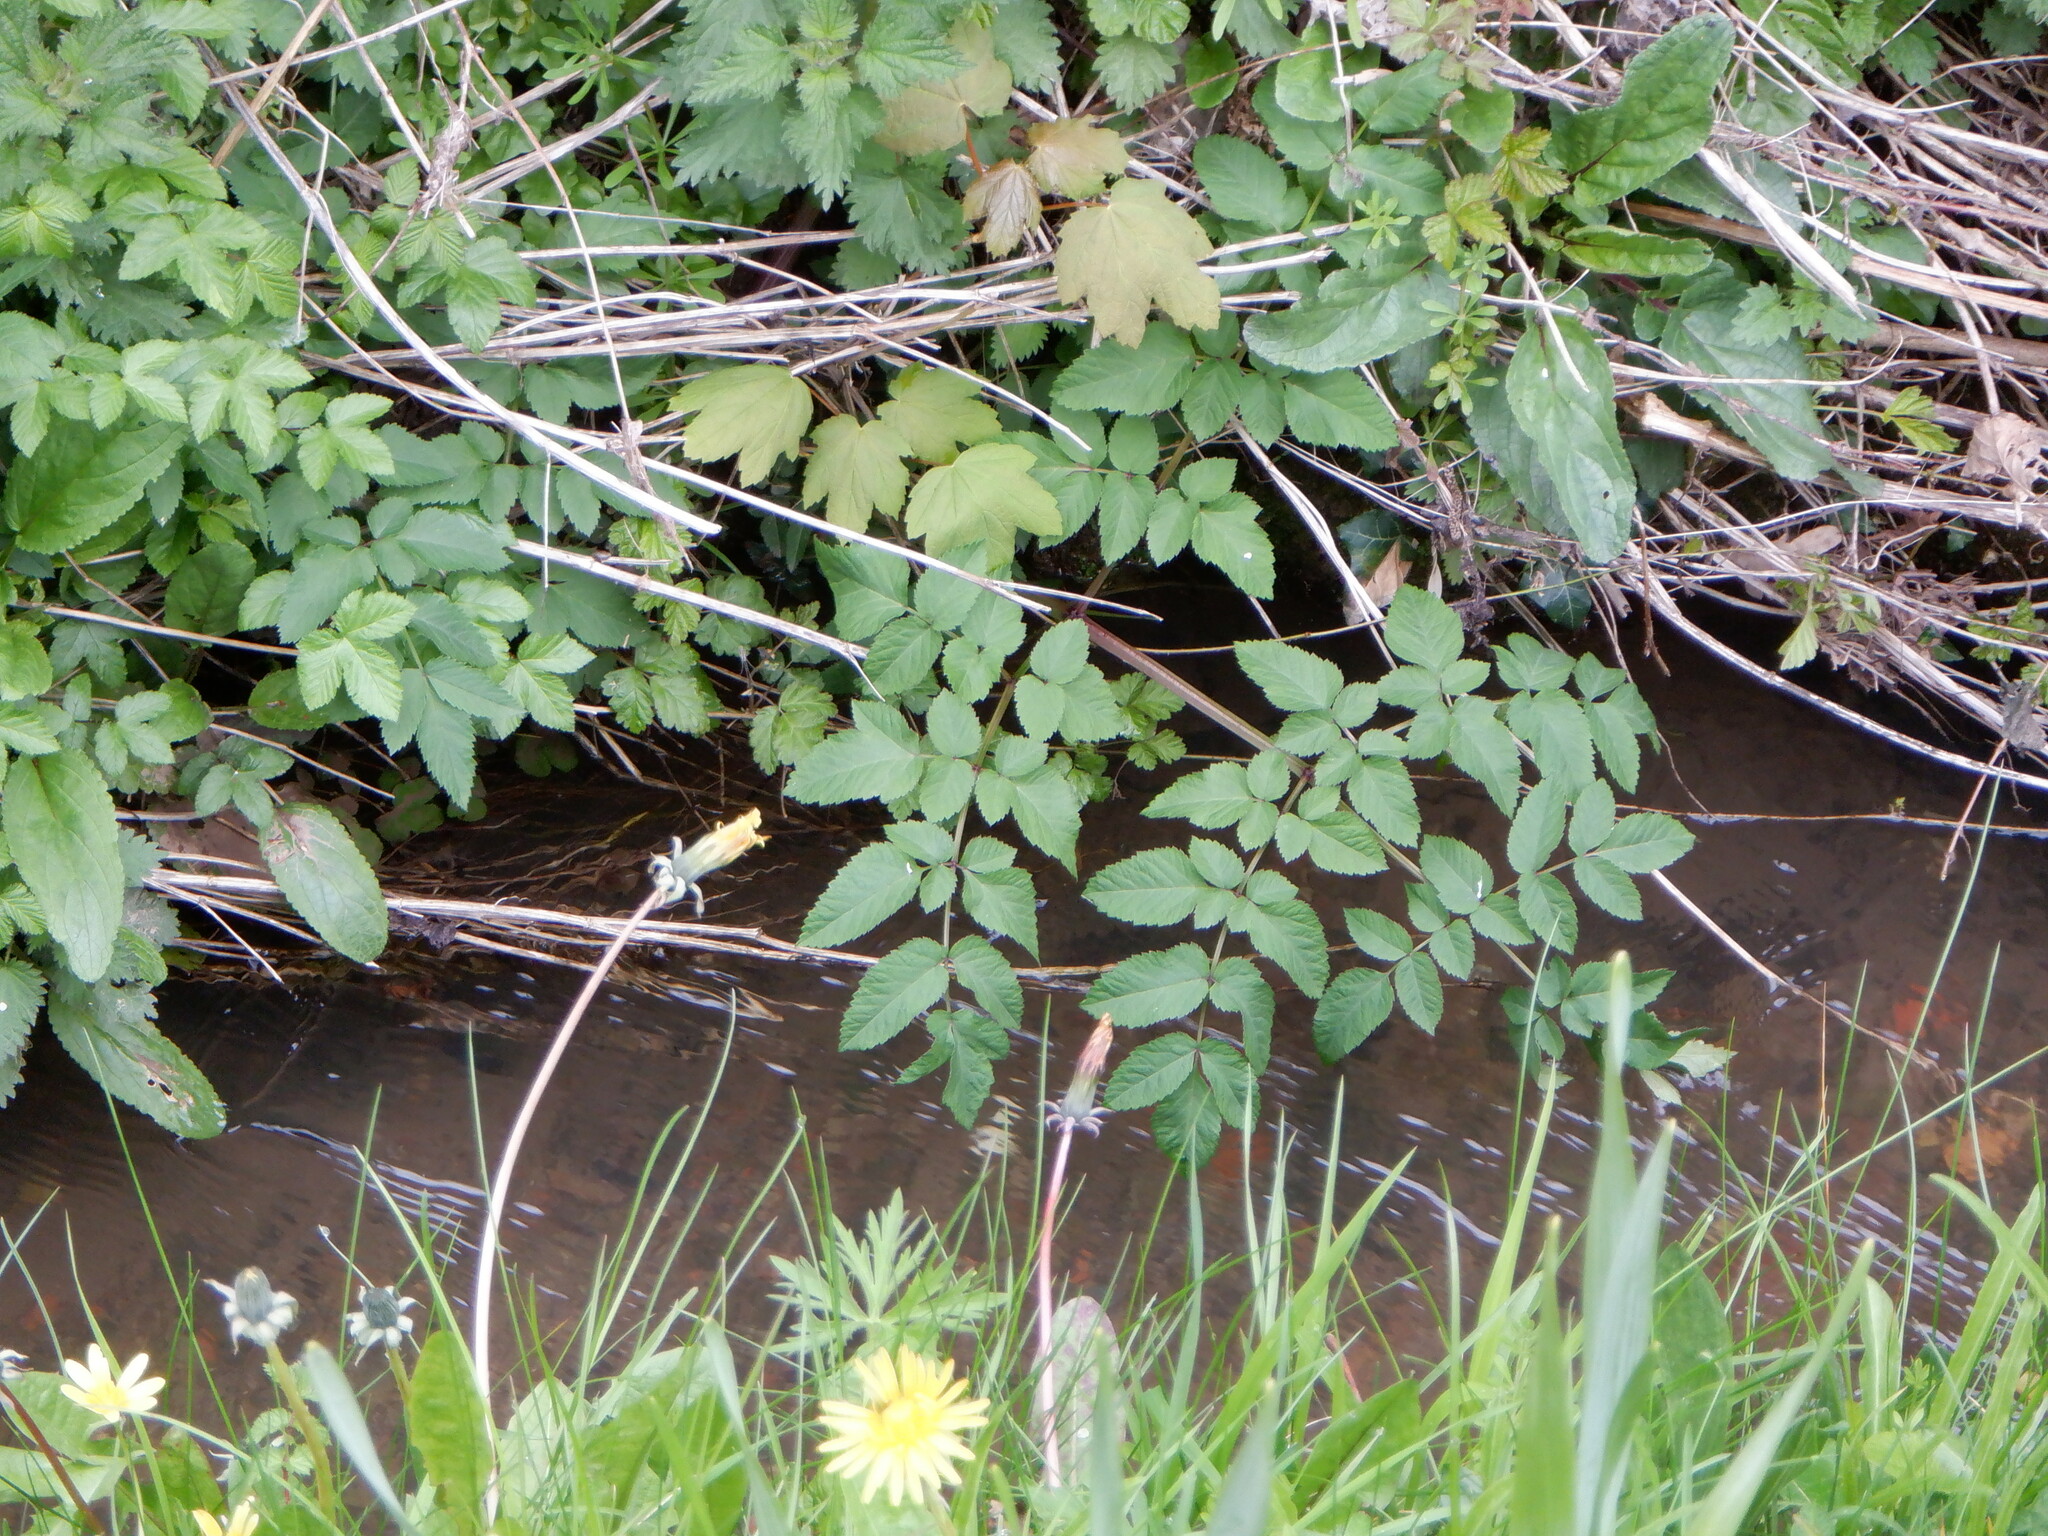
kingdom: Plantae
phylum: Tracheophyta
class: Magnoliopsida
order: Apiales
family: Apiaceae
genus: Angelica
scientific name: Angelica sylvestris
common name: Wild angelica
